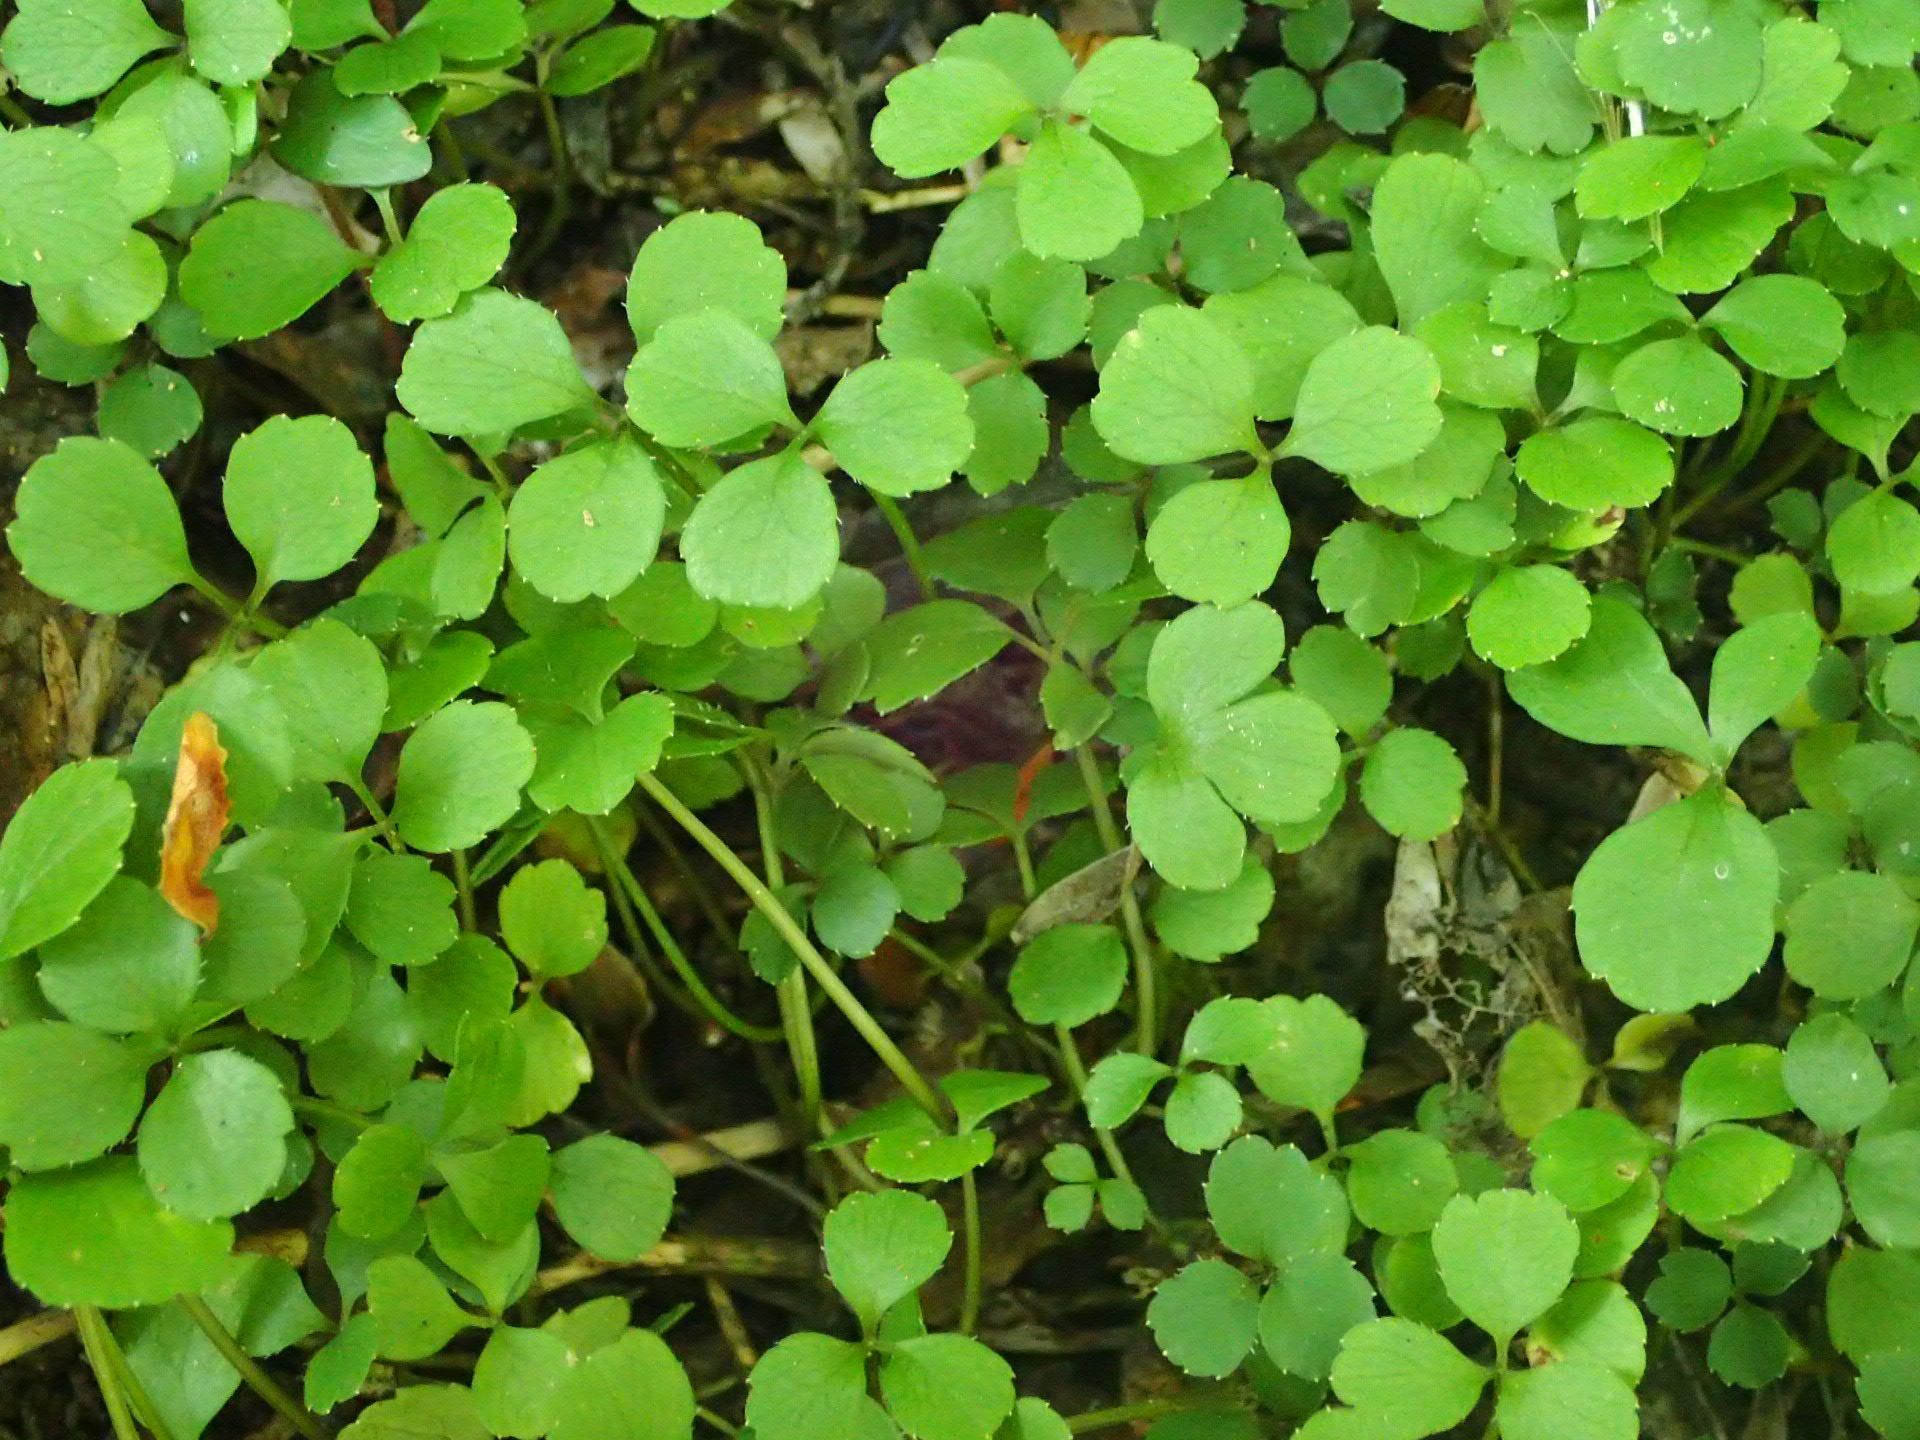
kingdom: Plantae
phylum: Tracheophyta
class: Magnoliopsida
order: Apiales
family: Apiaceae
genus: Azorella
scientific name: Azorella hookeri
